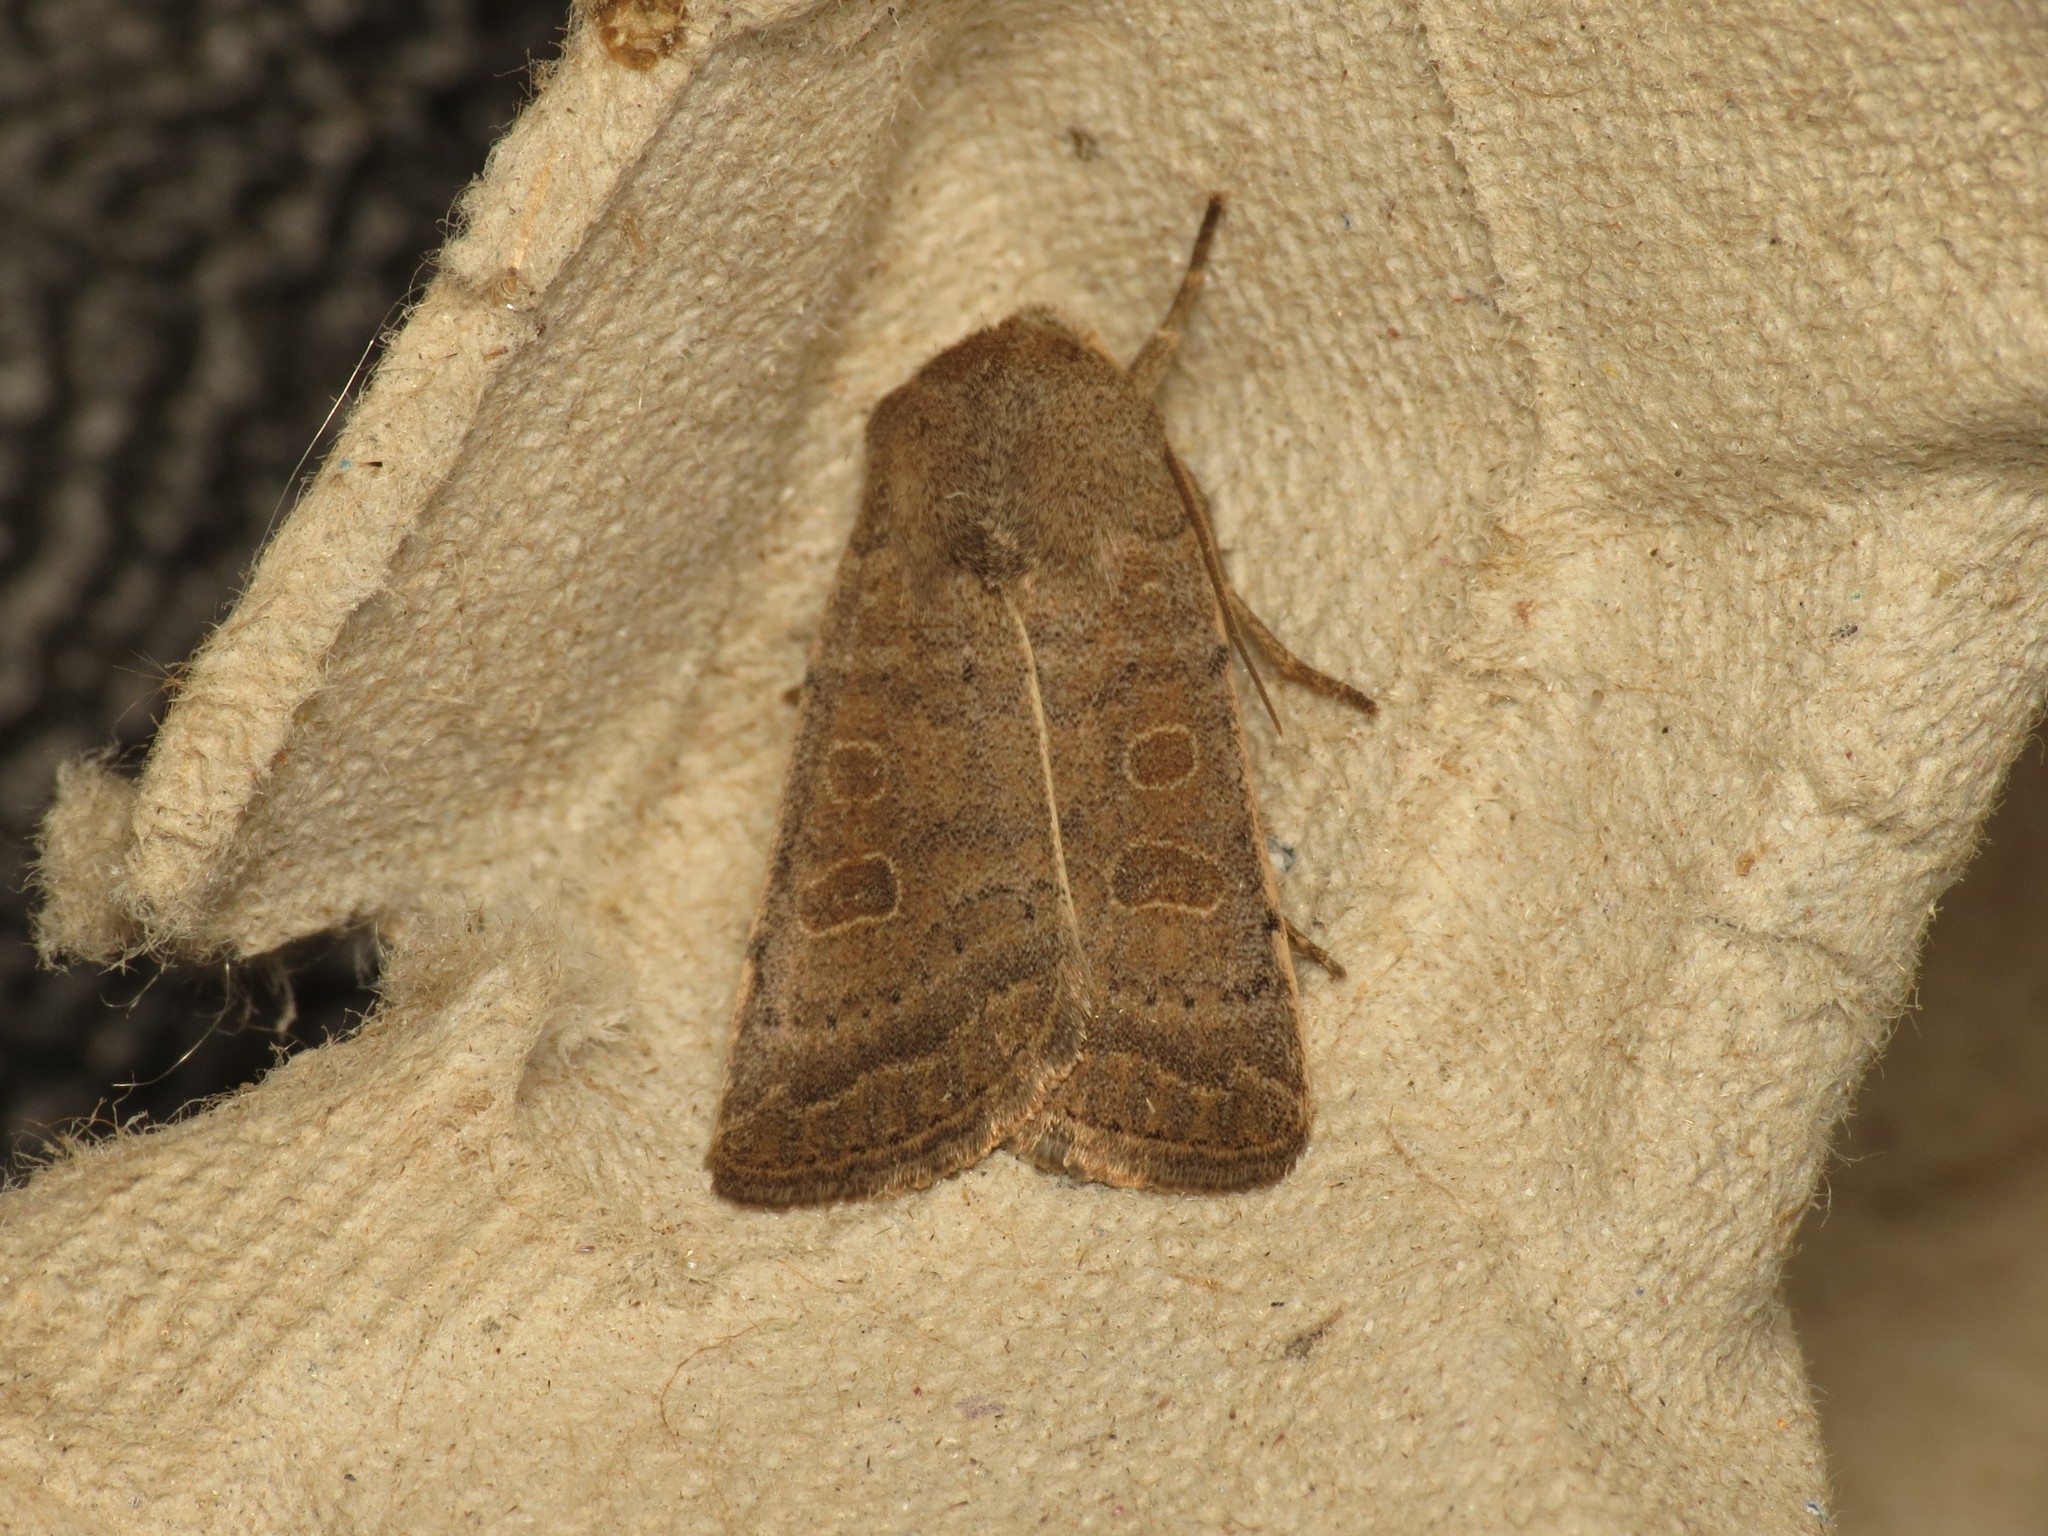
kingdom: Animalia
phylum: Arthropoda
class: Insecta
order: Lepidoptera
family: Noctuidae
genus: Hoplodrina
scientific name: Hoplodrina ambigua
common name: Vine's rustic
